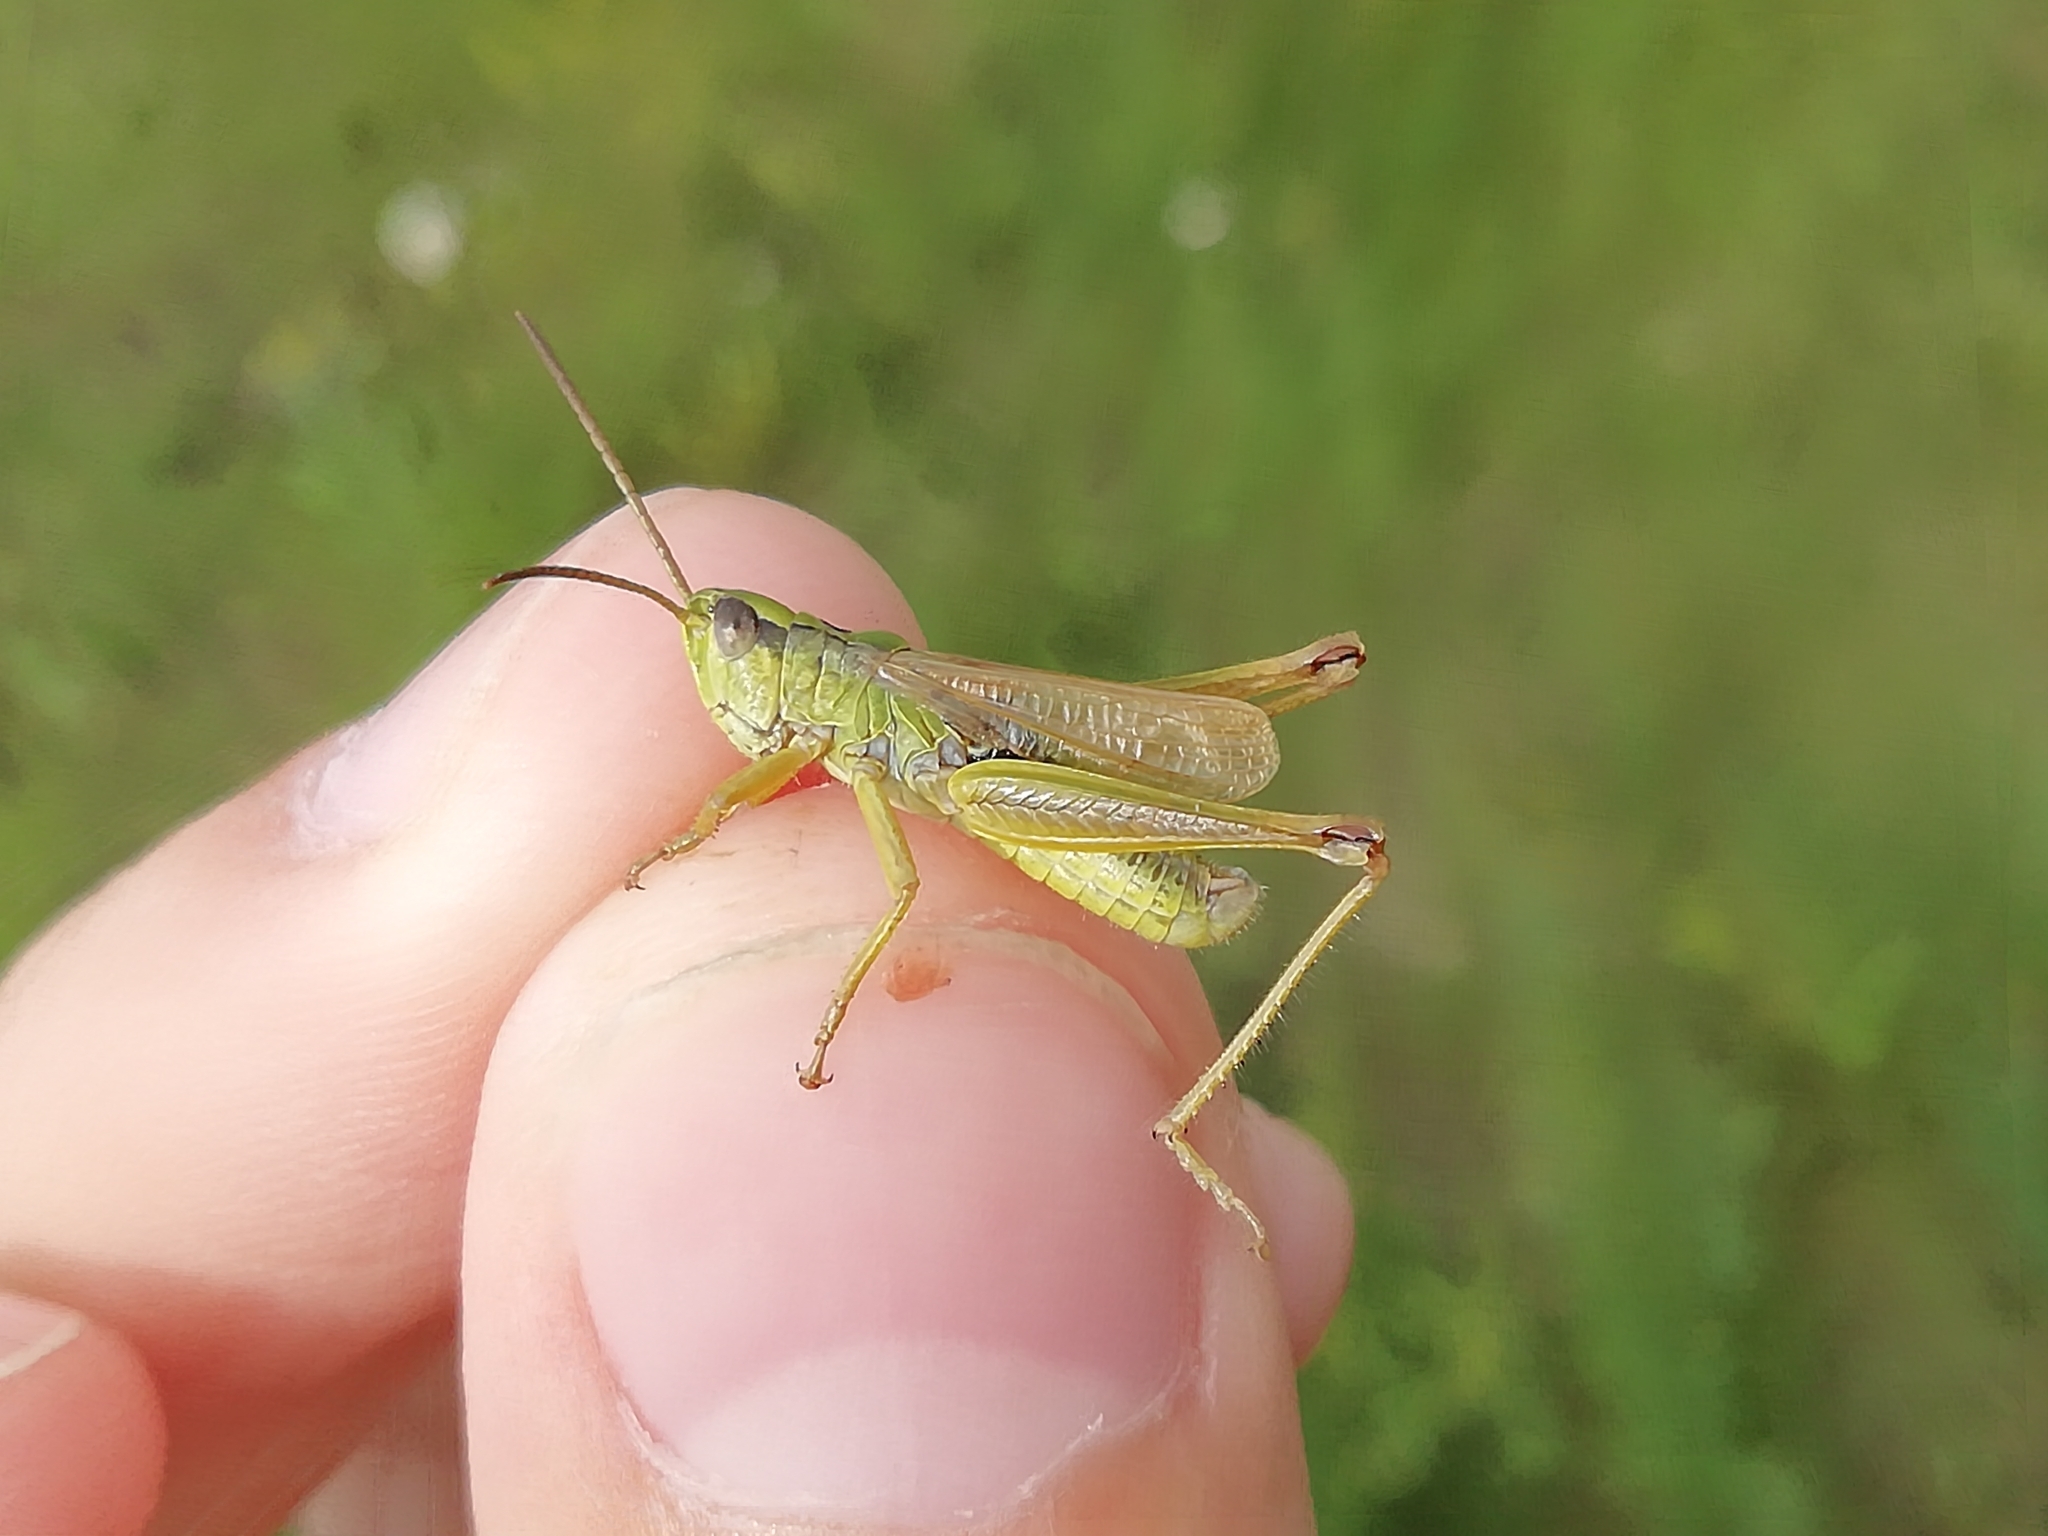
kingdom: Animalia
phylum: Arthropoda
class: Insecta
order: Orthoptera
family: Acrididae
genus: Chorthippus
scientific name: Chorthippus fallax
